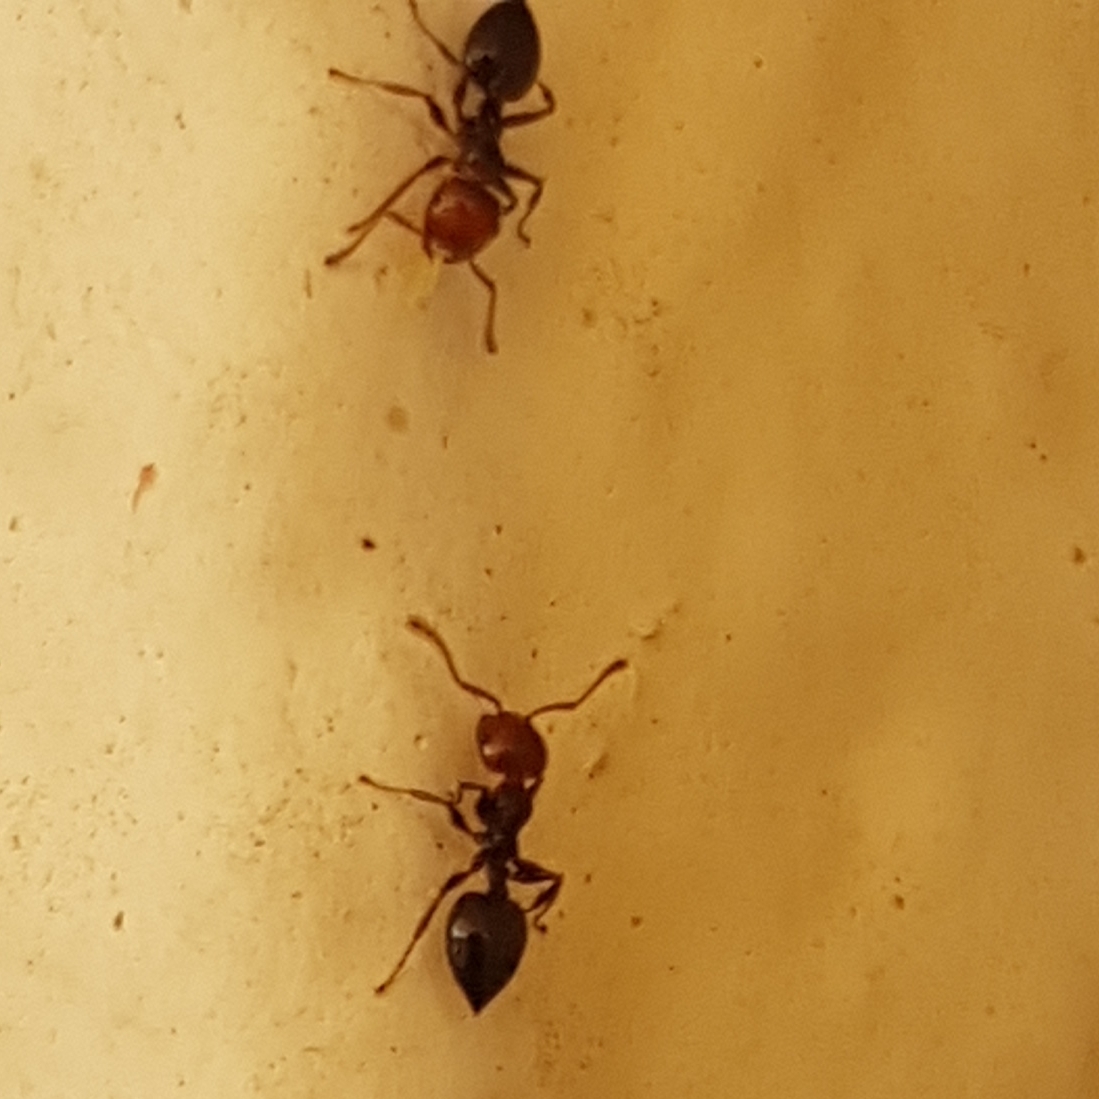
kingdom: Animalia
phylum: Arthropoda
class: Insecta
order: Hymenoptera
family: Formicidae
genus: Crematogaster
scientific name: Crematogaster scutellaris
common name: Fourmi du liège
